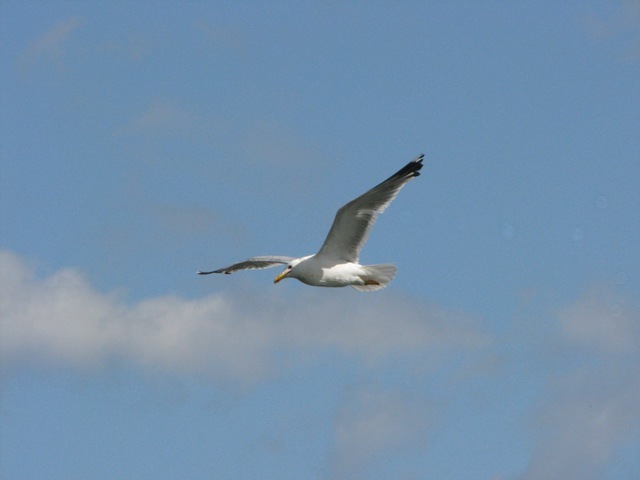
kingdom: Animalia
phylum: Chordata
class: Aves
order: Charadriiformes
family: Laridae
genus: Larus
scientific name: Larus cachinnans
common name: Caspian gull
